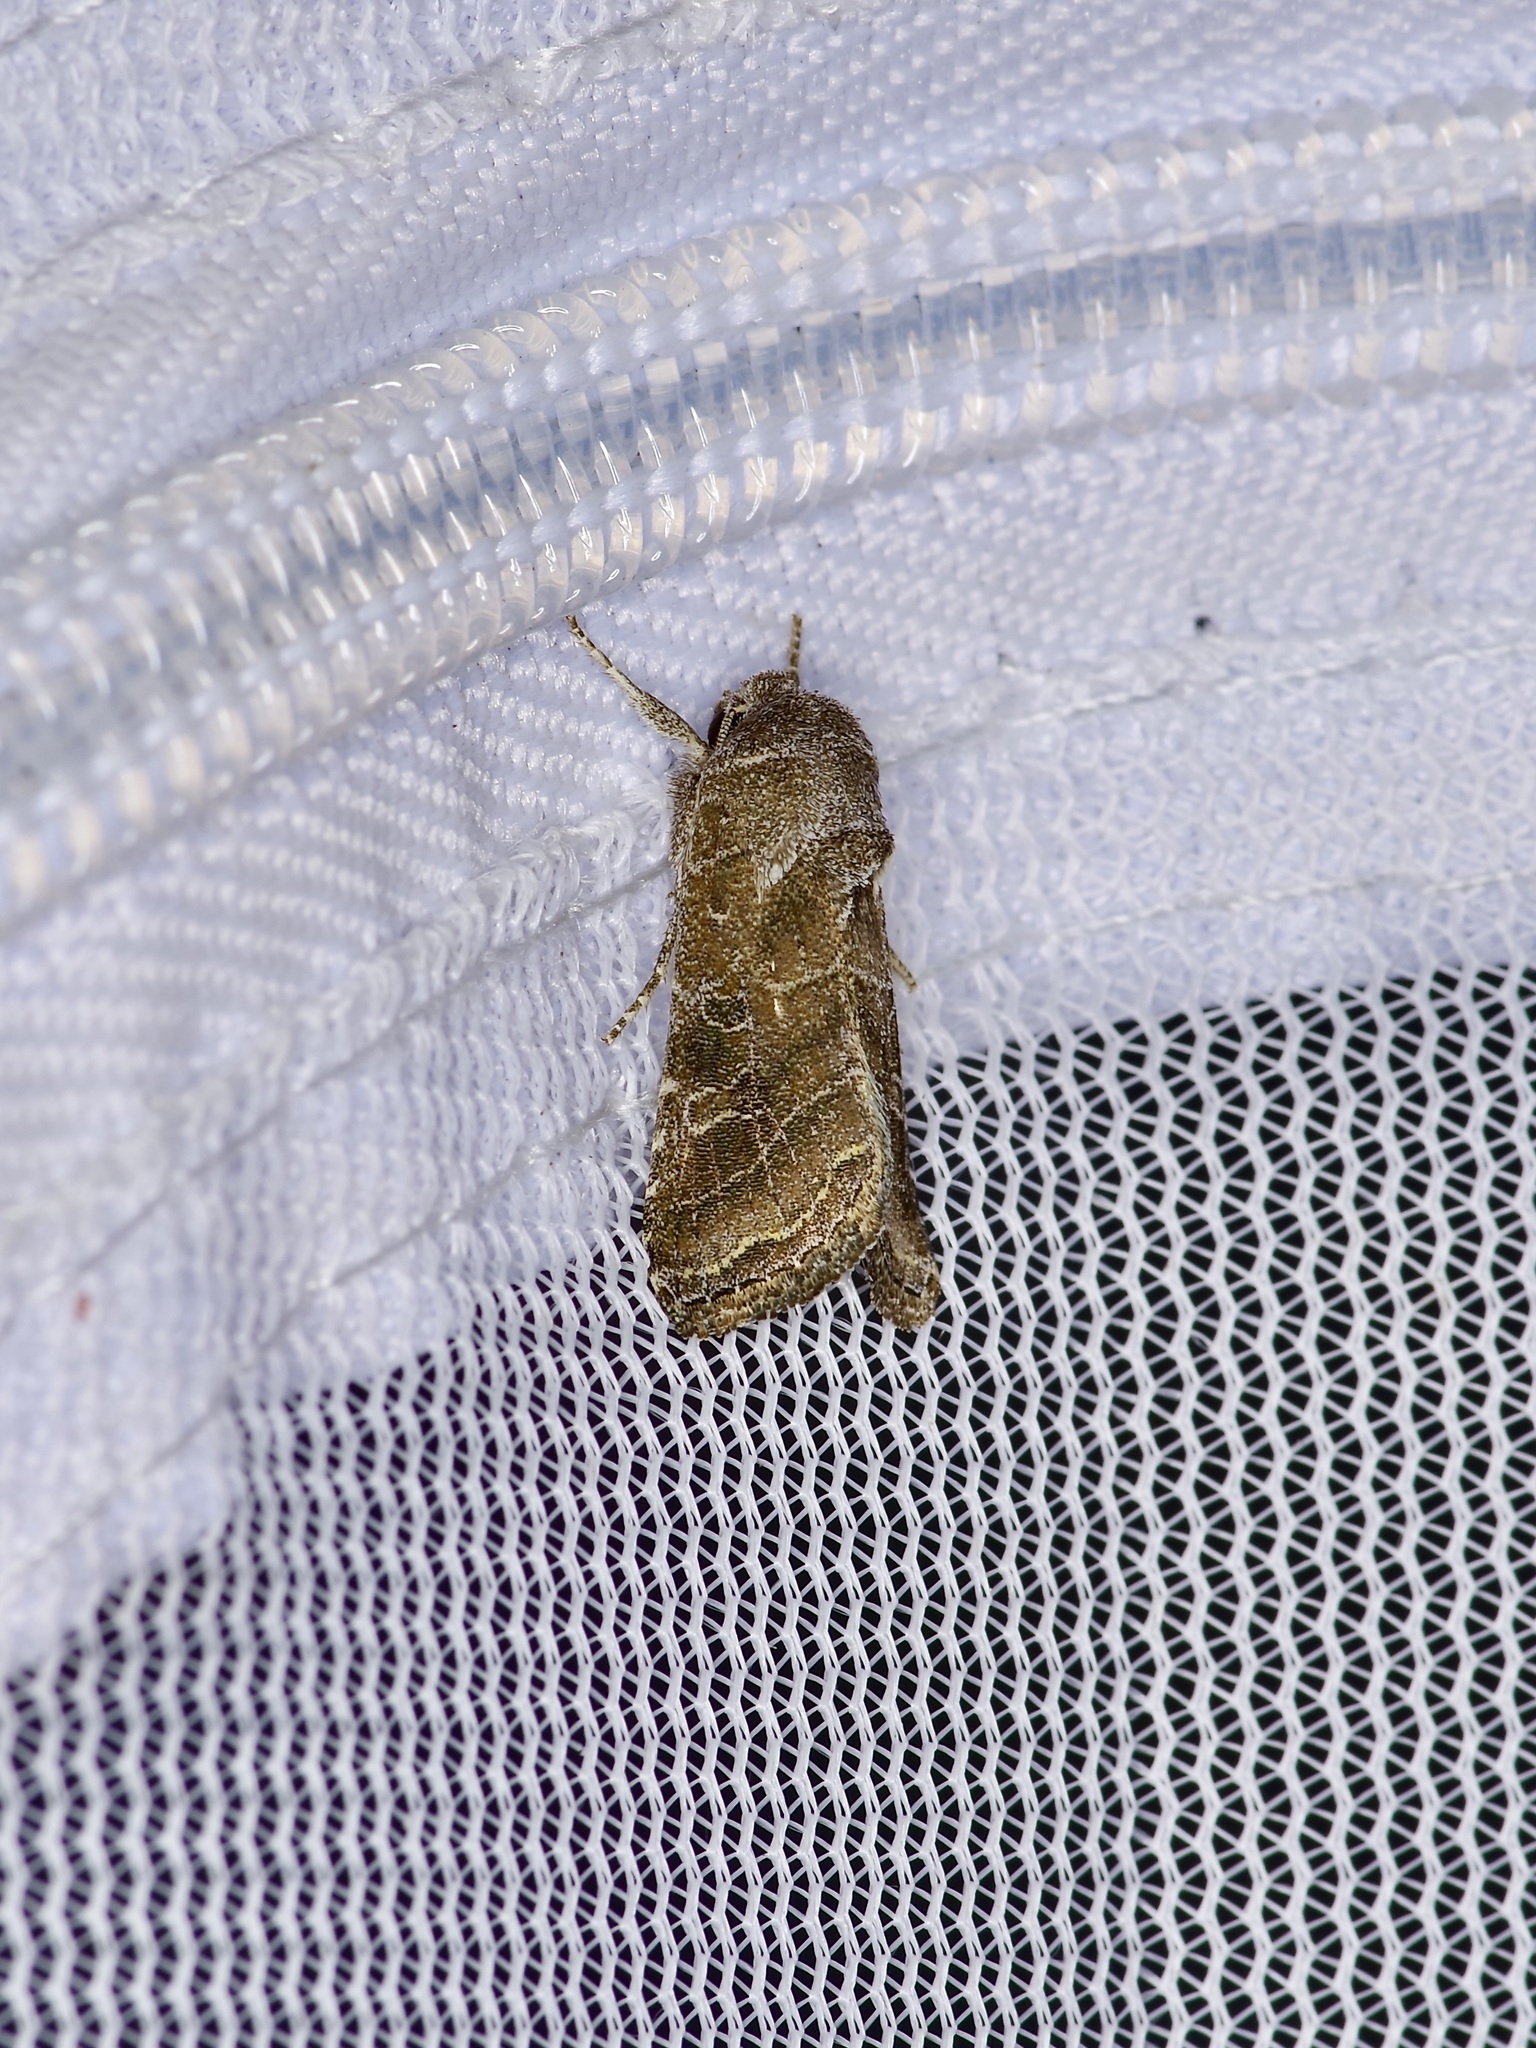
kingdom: Animalia
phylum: Arthropoda
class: Insecta
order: Lepidoptera
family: Noctuidae
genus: Lacinipolia
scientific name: Lacinipolia erecta
